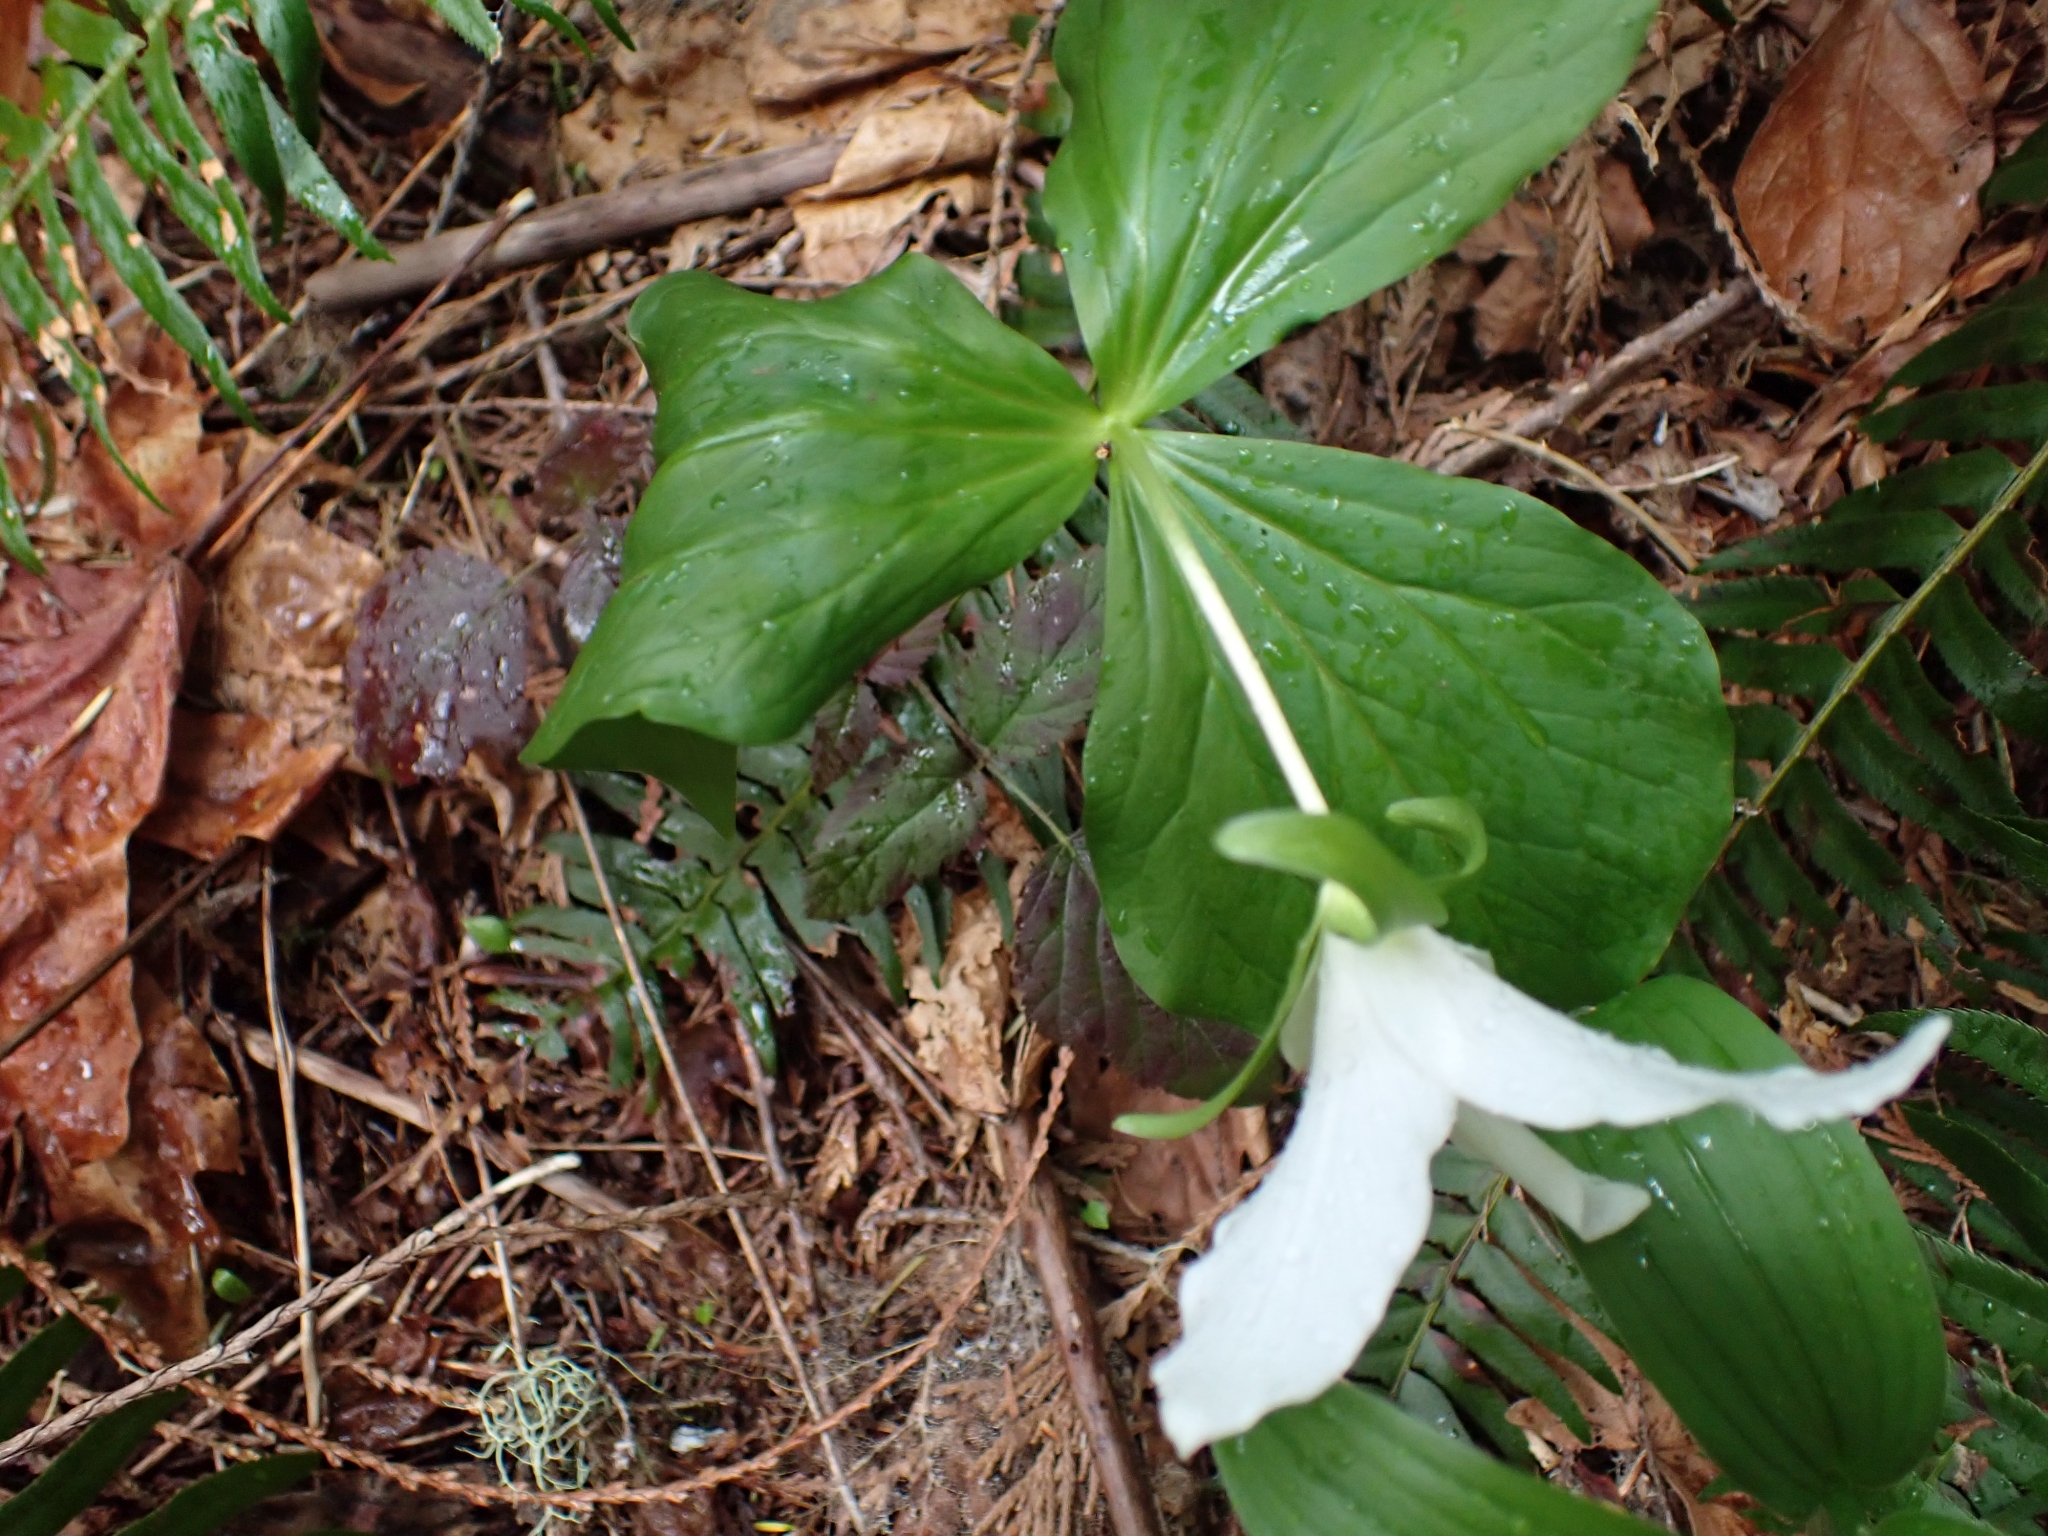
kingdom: Plantae
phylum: Tracheophyta
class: Liliopsida
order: Liliales
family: Melanthiaceae
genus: Trillium
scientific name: Trillium ovatum
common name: Pacific trillium
